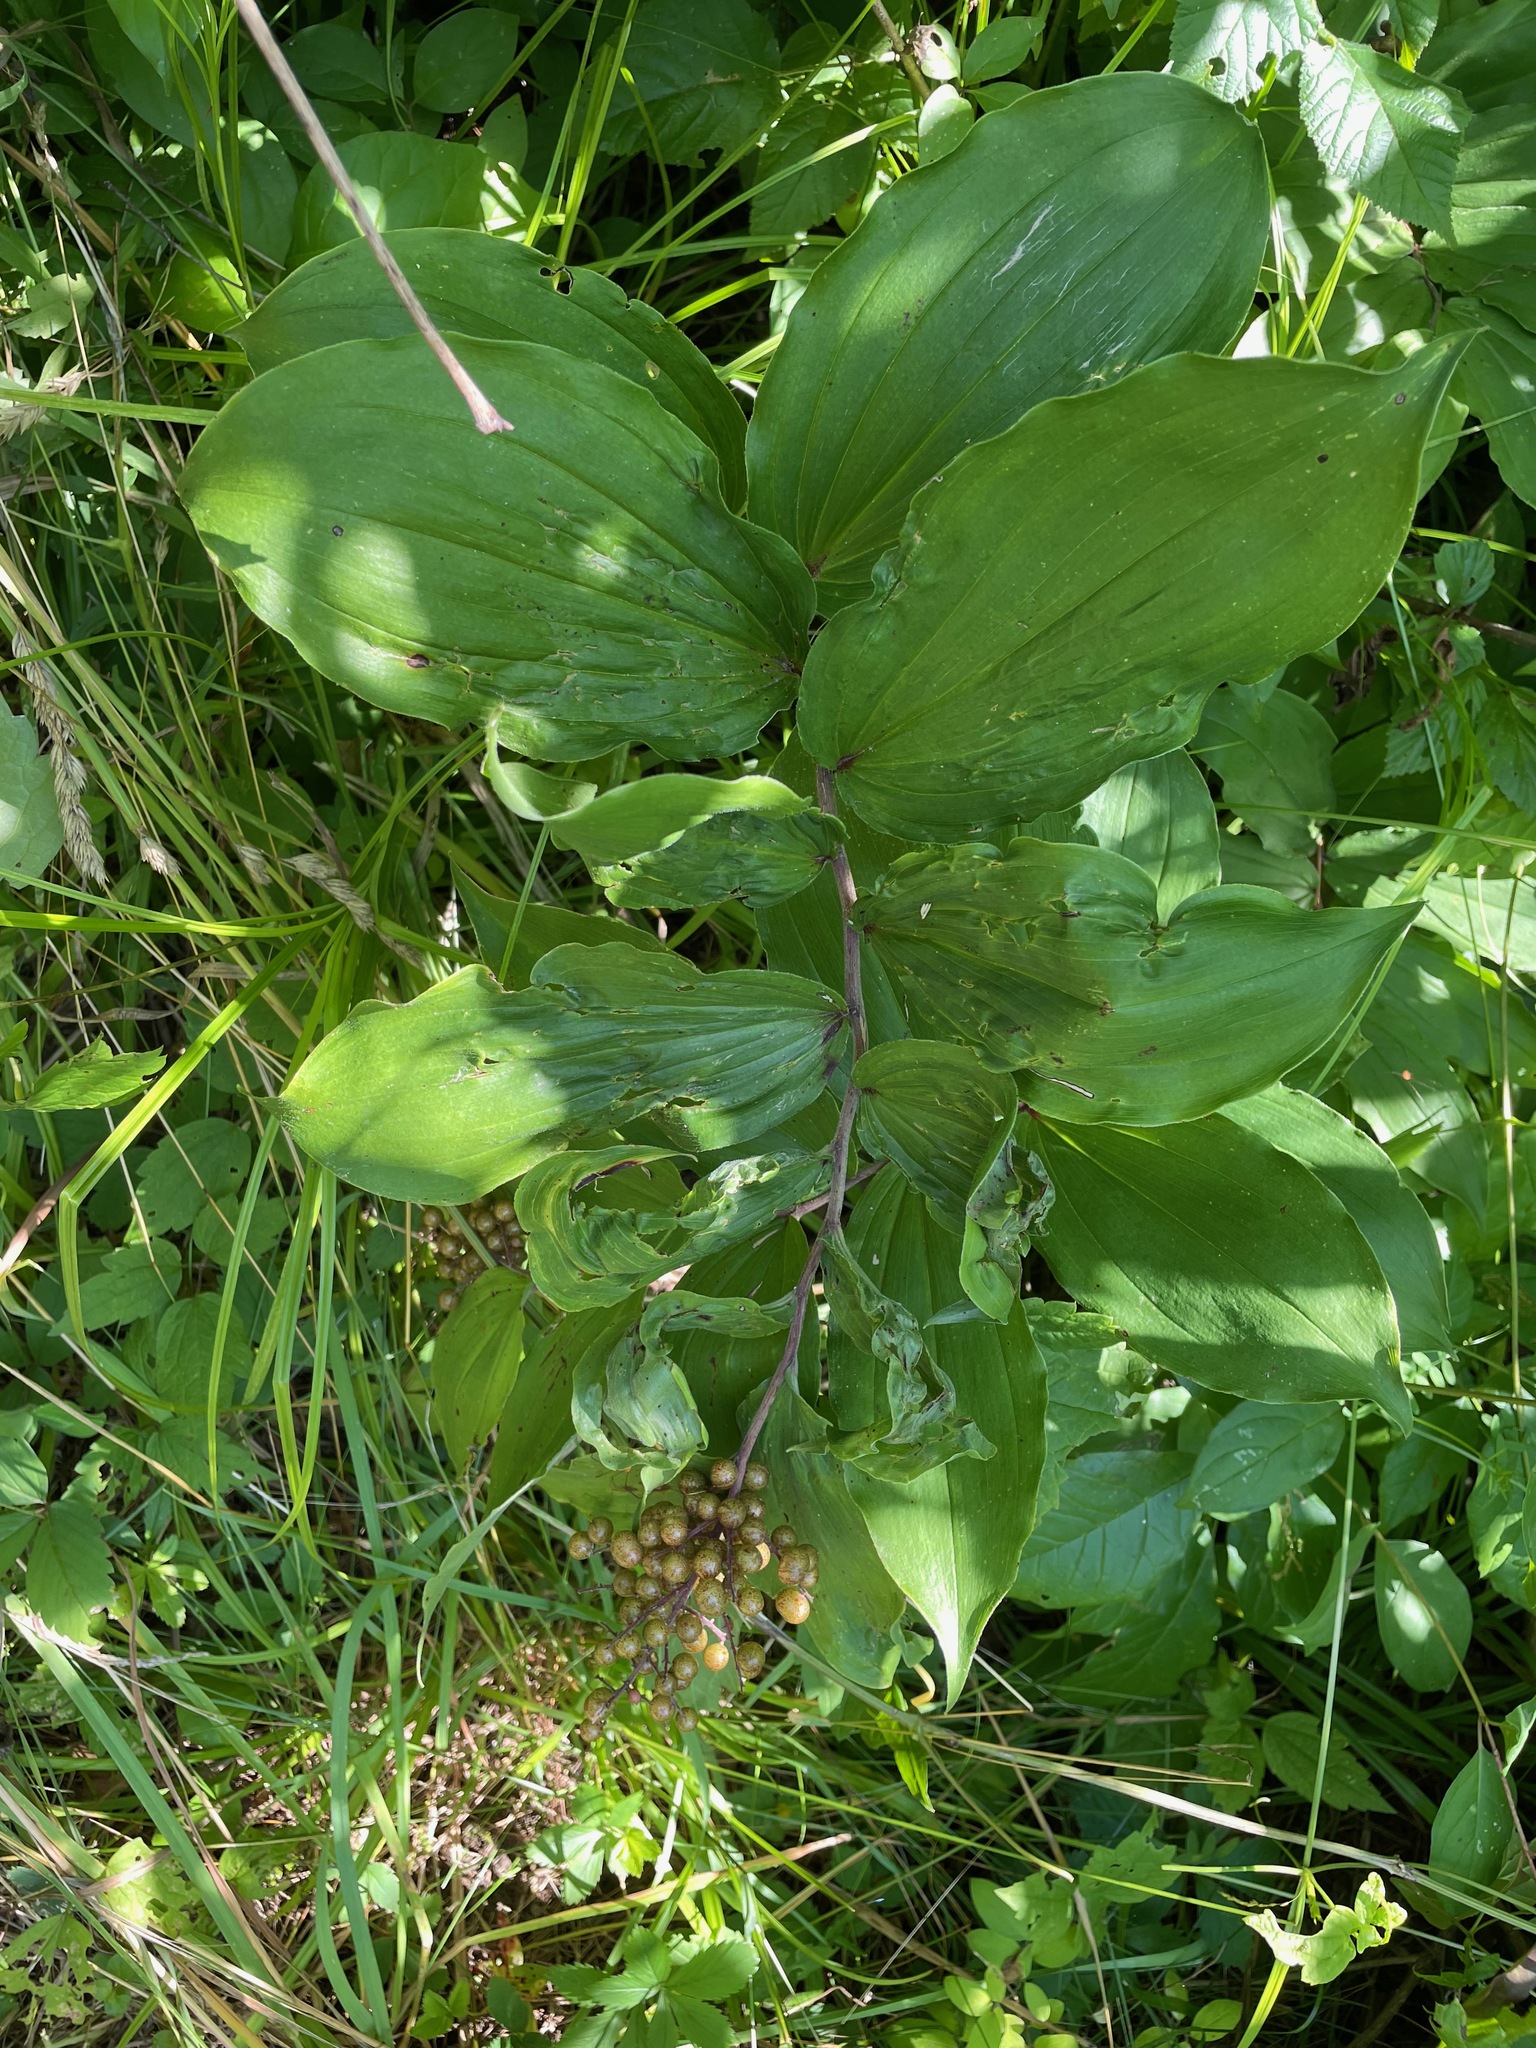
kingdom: Plantae
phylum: Tracheophyta
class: Liliopsida
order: Asparagales
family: Asparagaceae
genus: Maianthemum
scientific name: Maianthemum racemosum
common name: False spikenard
